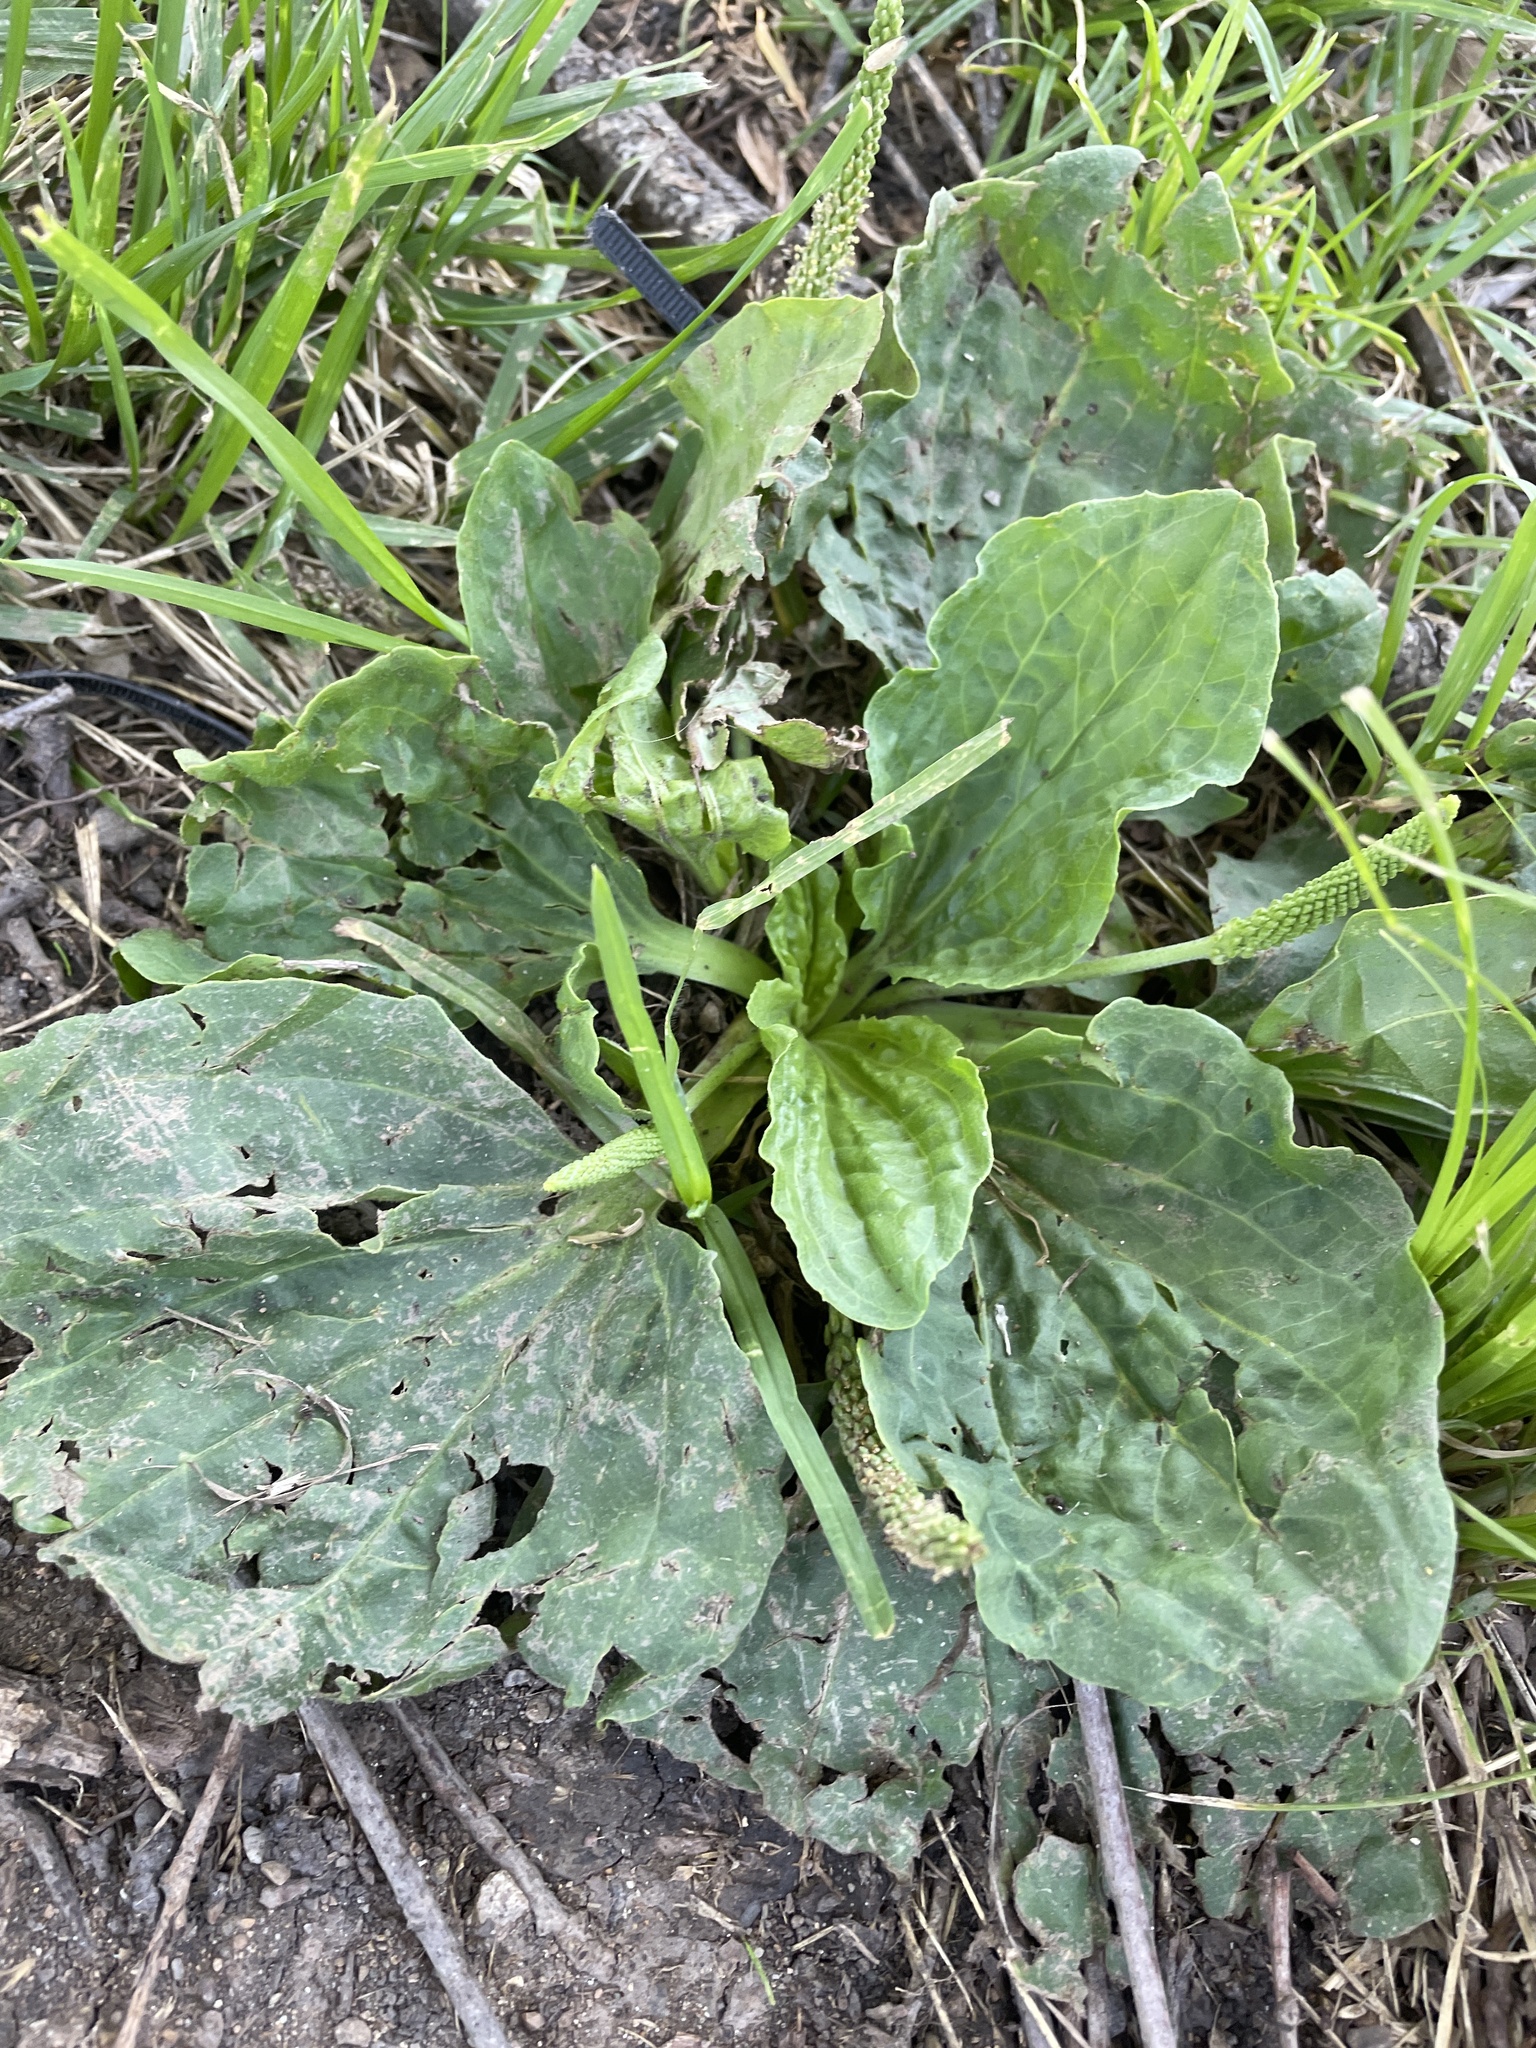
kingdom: Plantae
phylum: Tracheophyta
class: Magnoliopsida
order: Lamiales
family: Plantaginaceae
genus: Plantago
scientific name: Plantago major
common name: Common plantain
